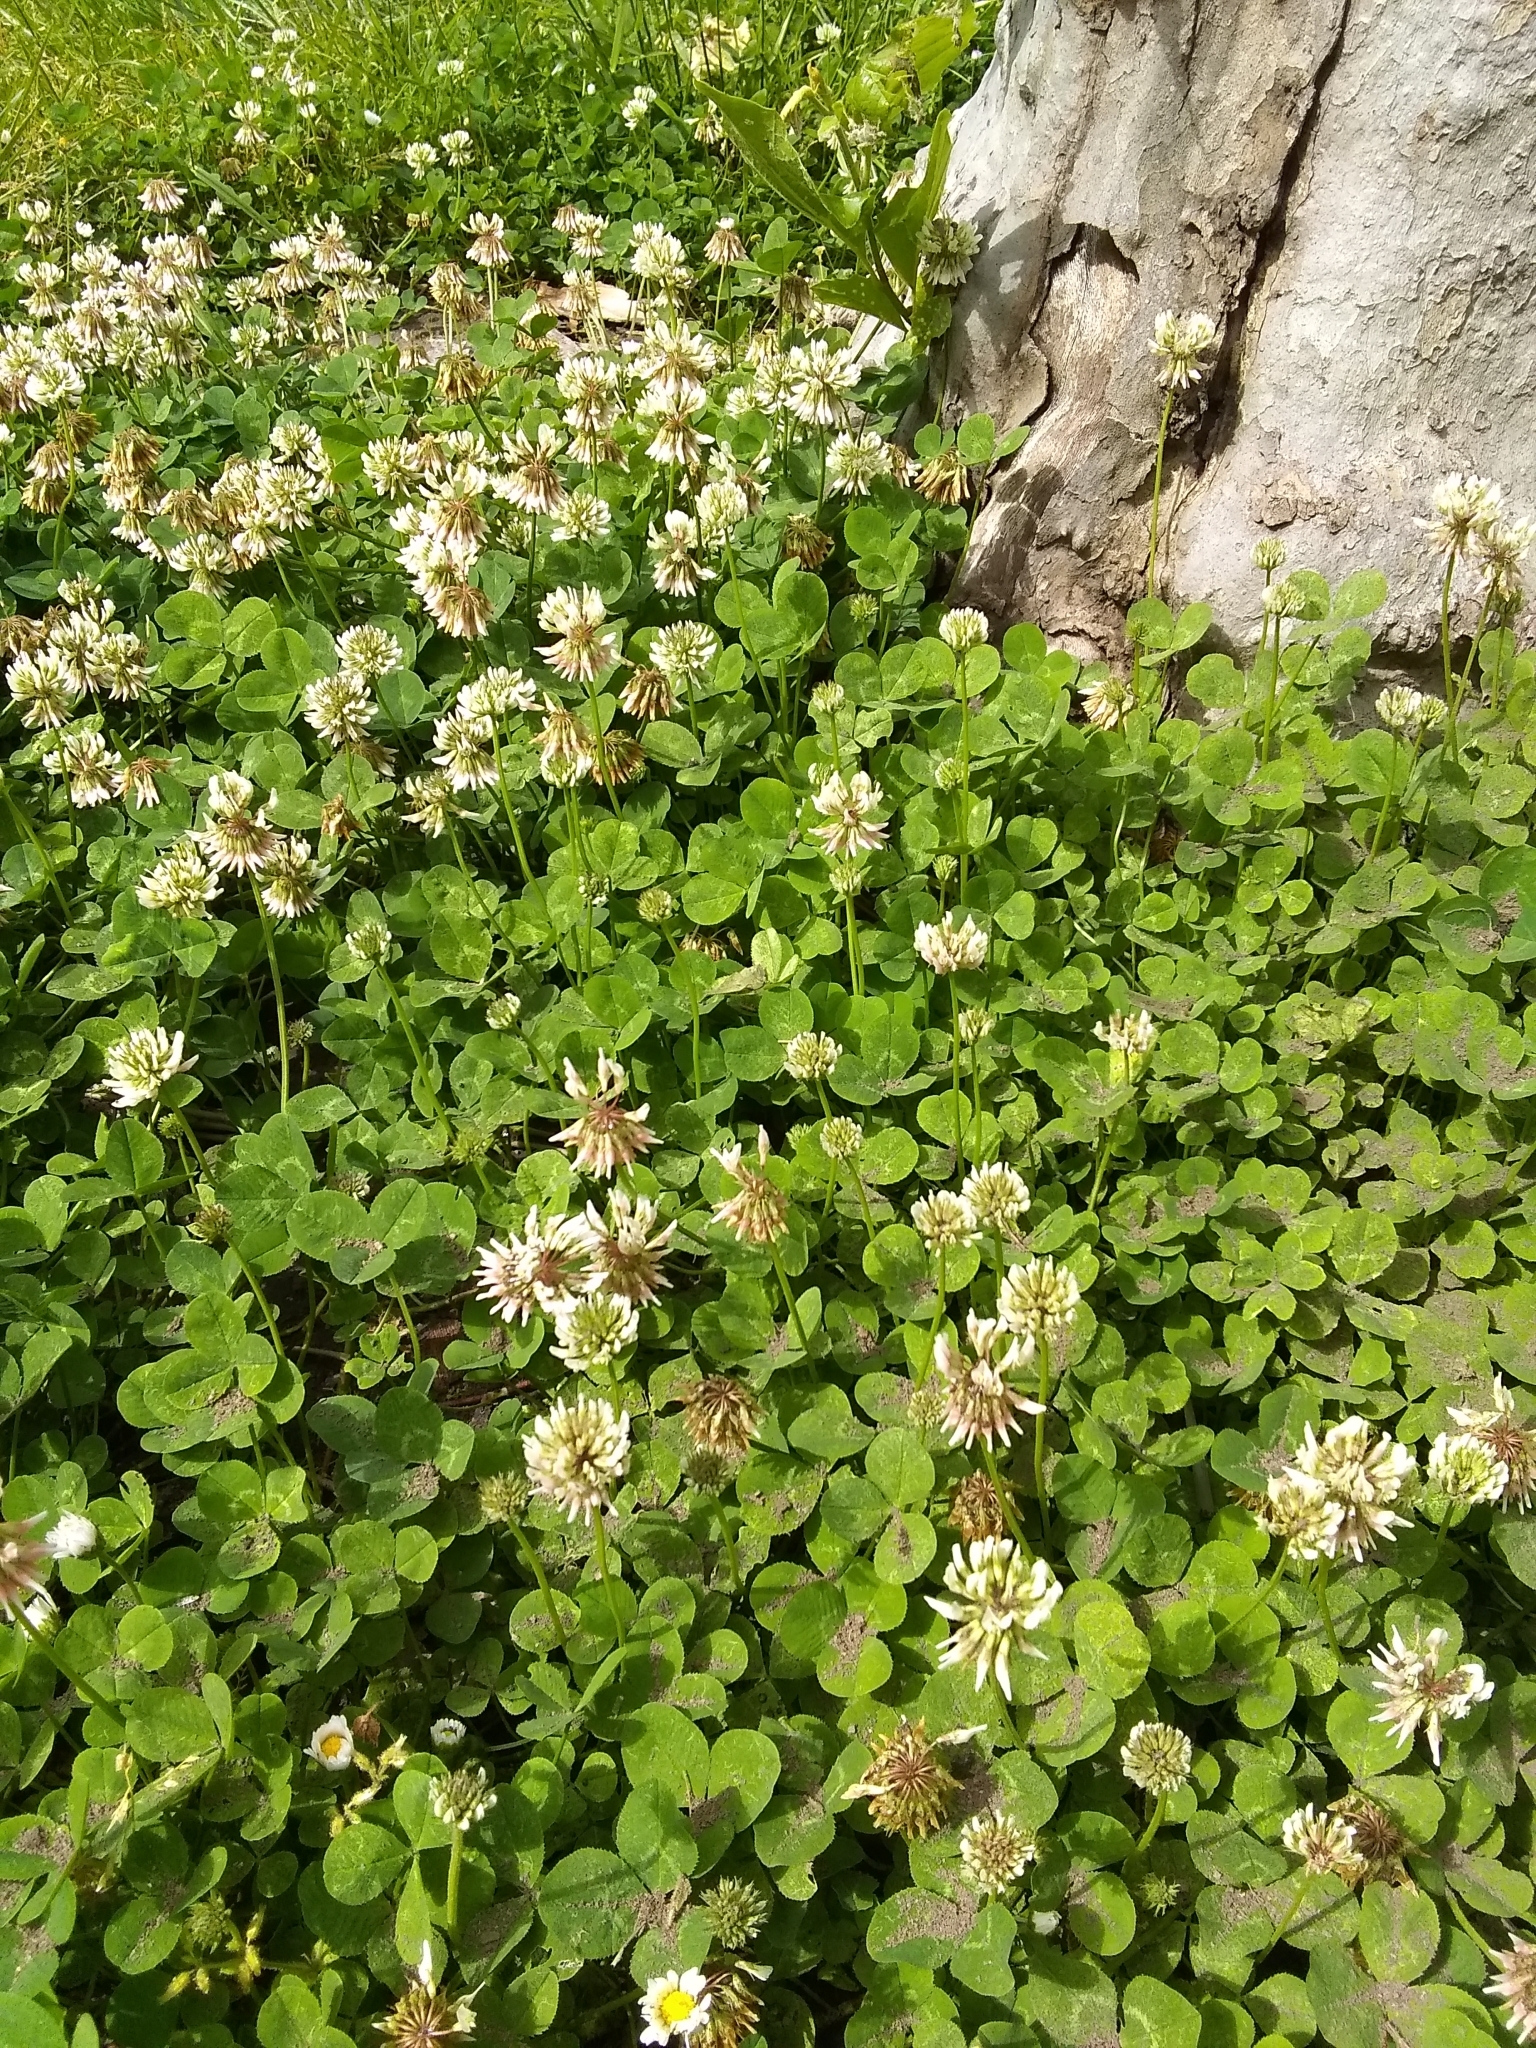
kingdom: Plantae
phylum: Tracheophyta
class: Magnoliopsida
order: Fabales
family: Fabaceae
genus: Trifolium
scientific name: Trifolium repens
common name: White clover
